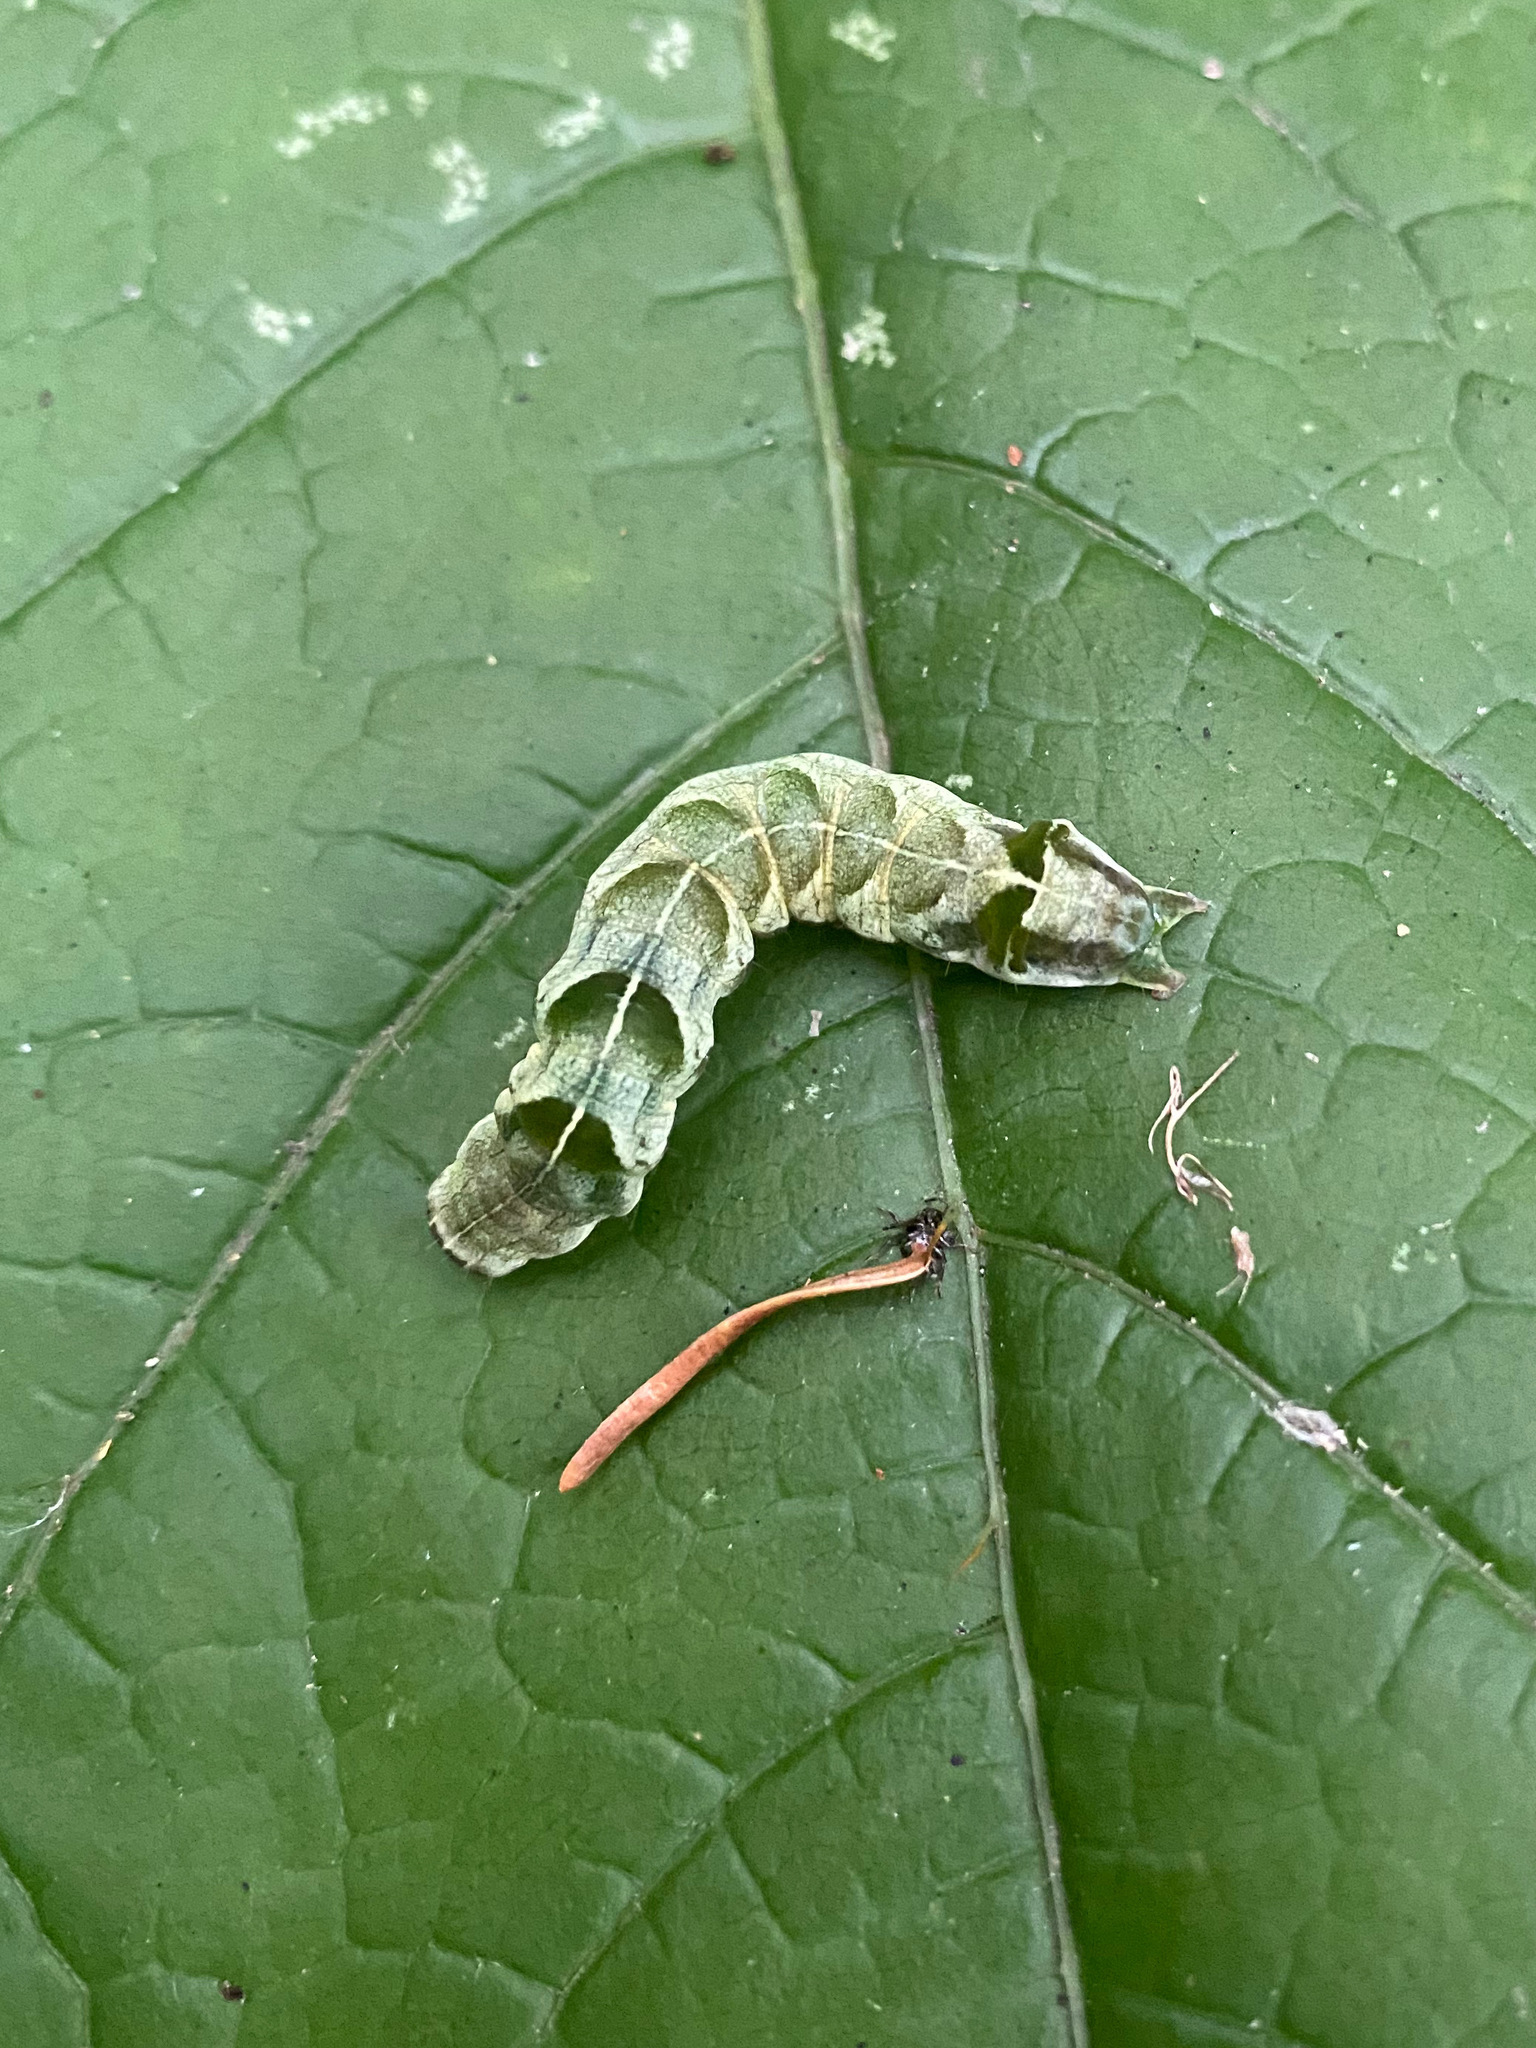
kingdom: Animalia
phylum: Arthropoda
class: Insecta
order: Lepidoptera
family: Noctuidae
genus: Melanchra
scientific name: Melanchra adjuncta
